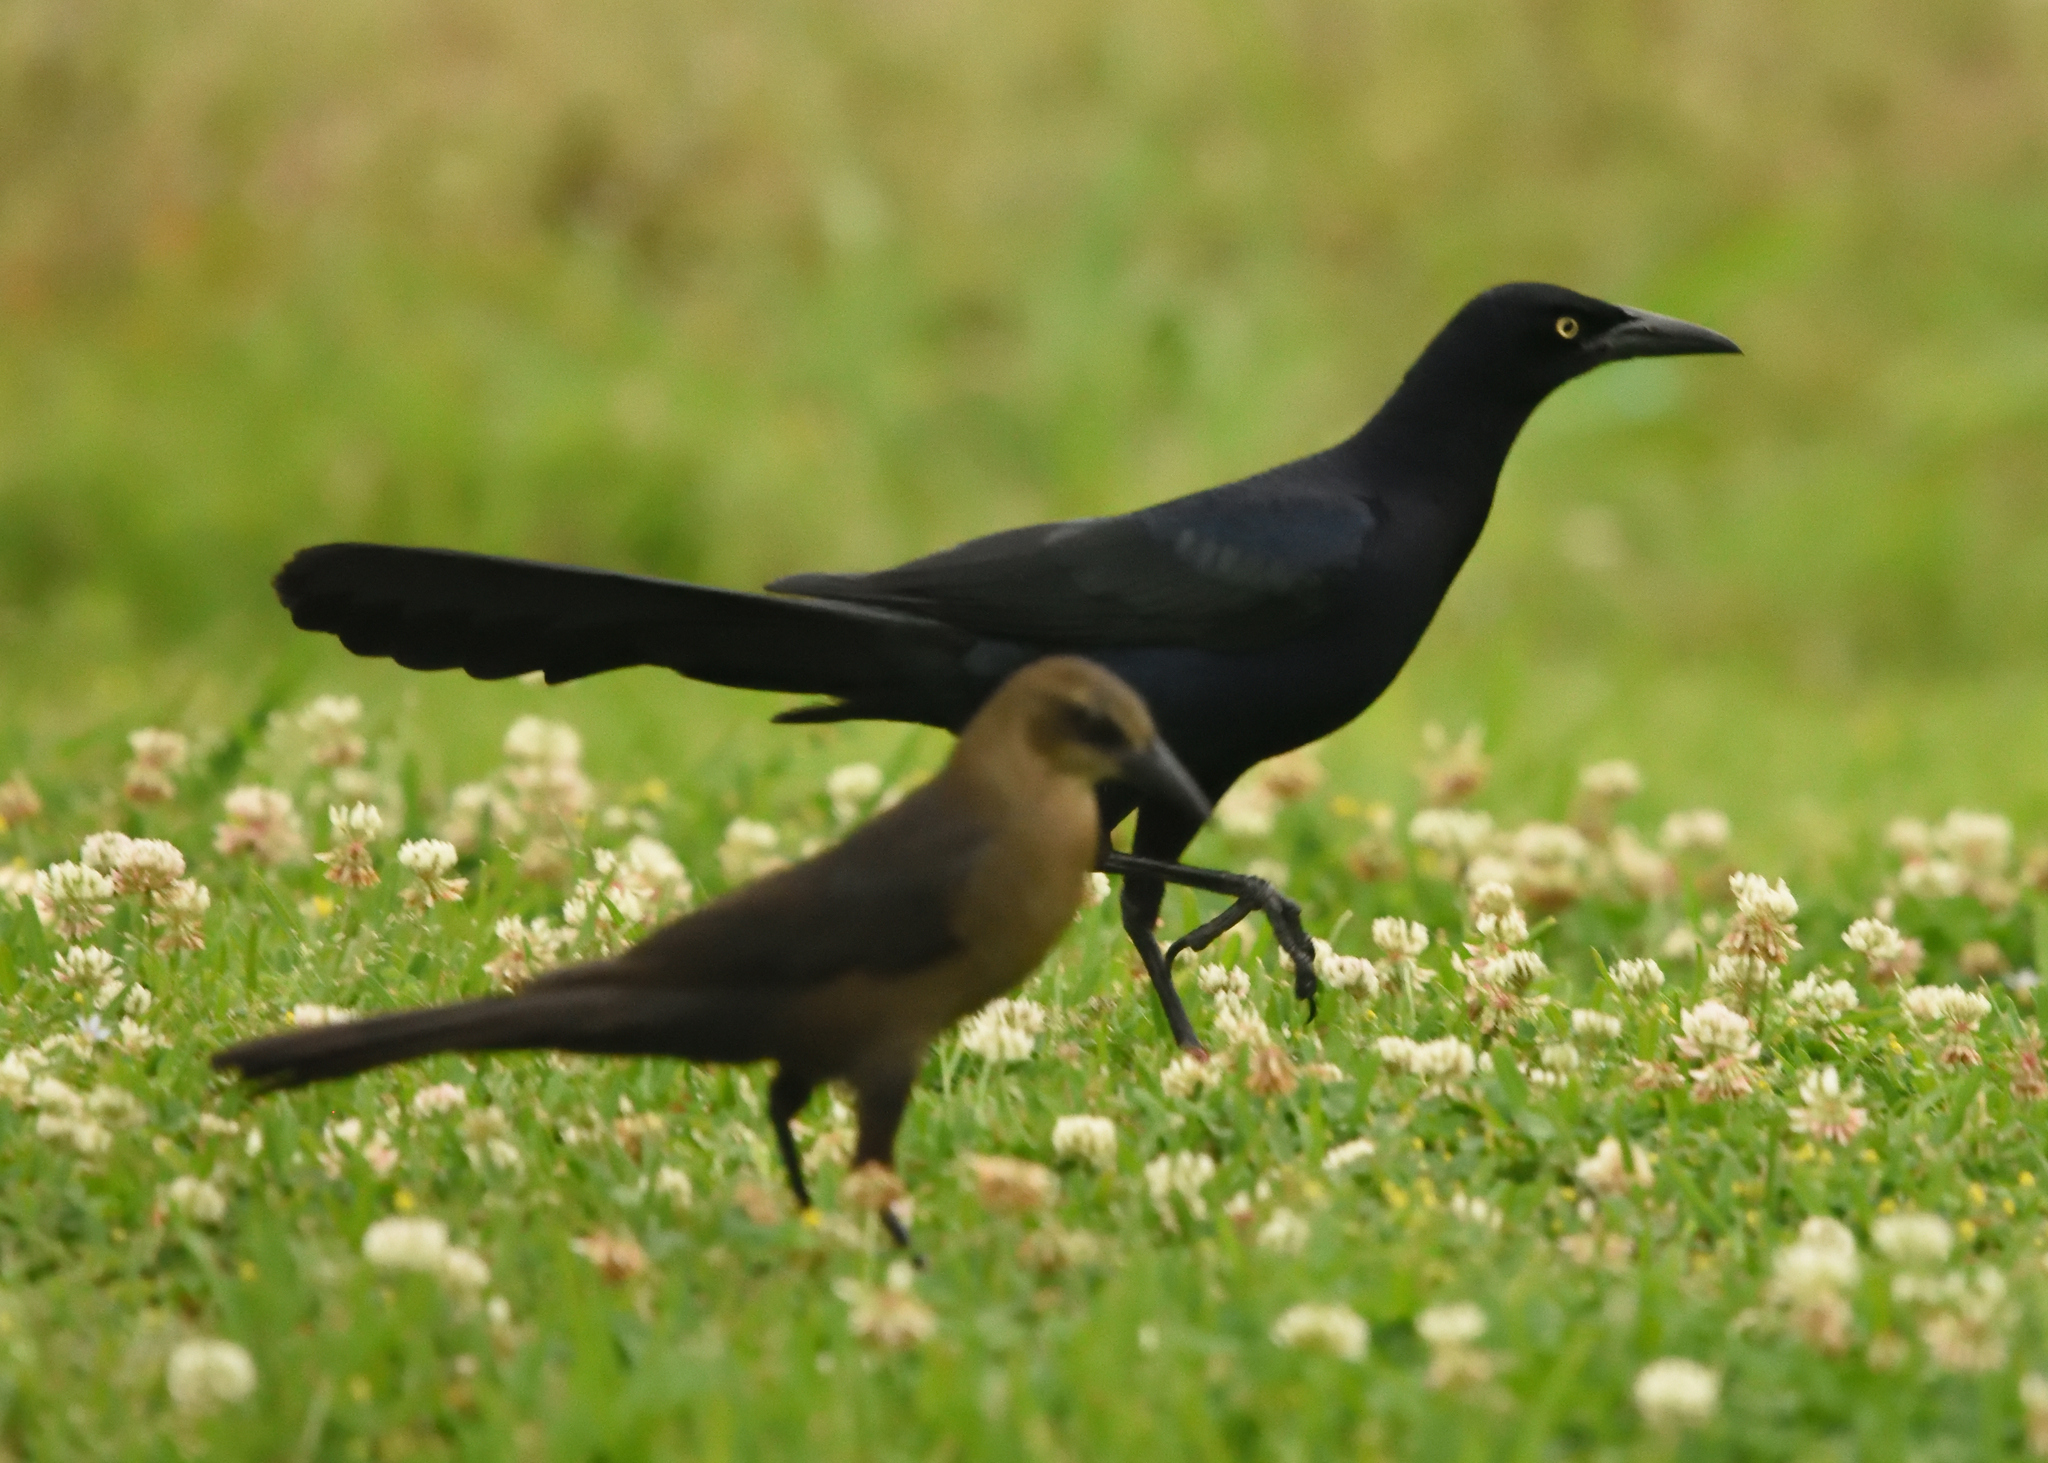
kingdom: Animalia
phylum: Chordata
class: Aves
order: Passeriformes
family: Icteridae
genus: Quiscalus
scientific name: Quiscalus mexicanus
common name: Great-tailed grackle
